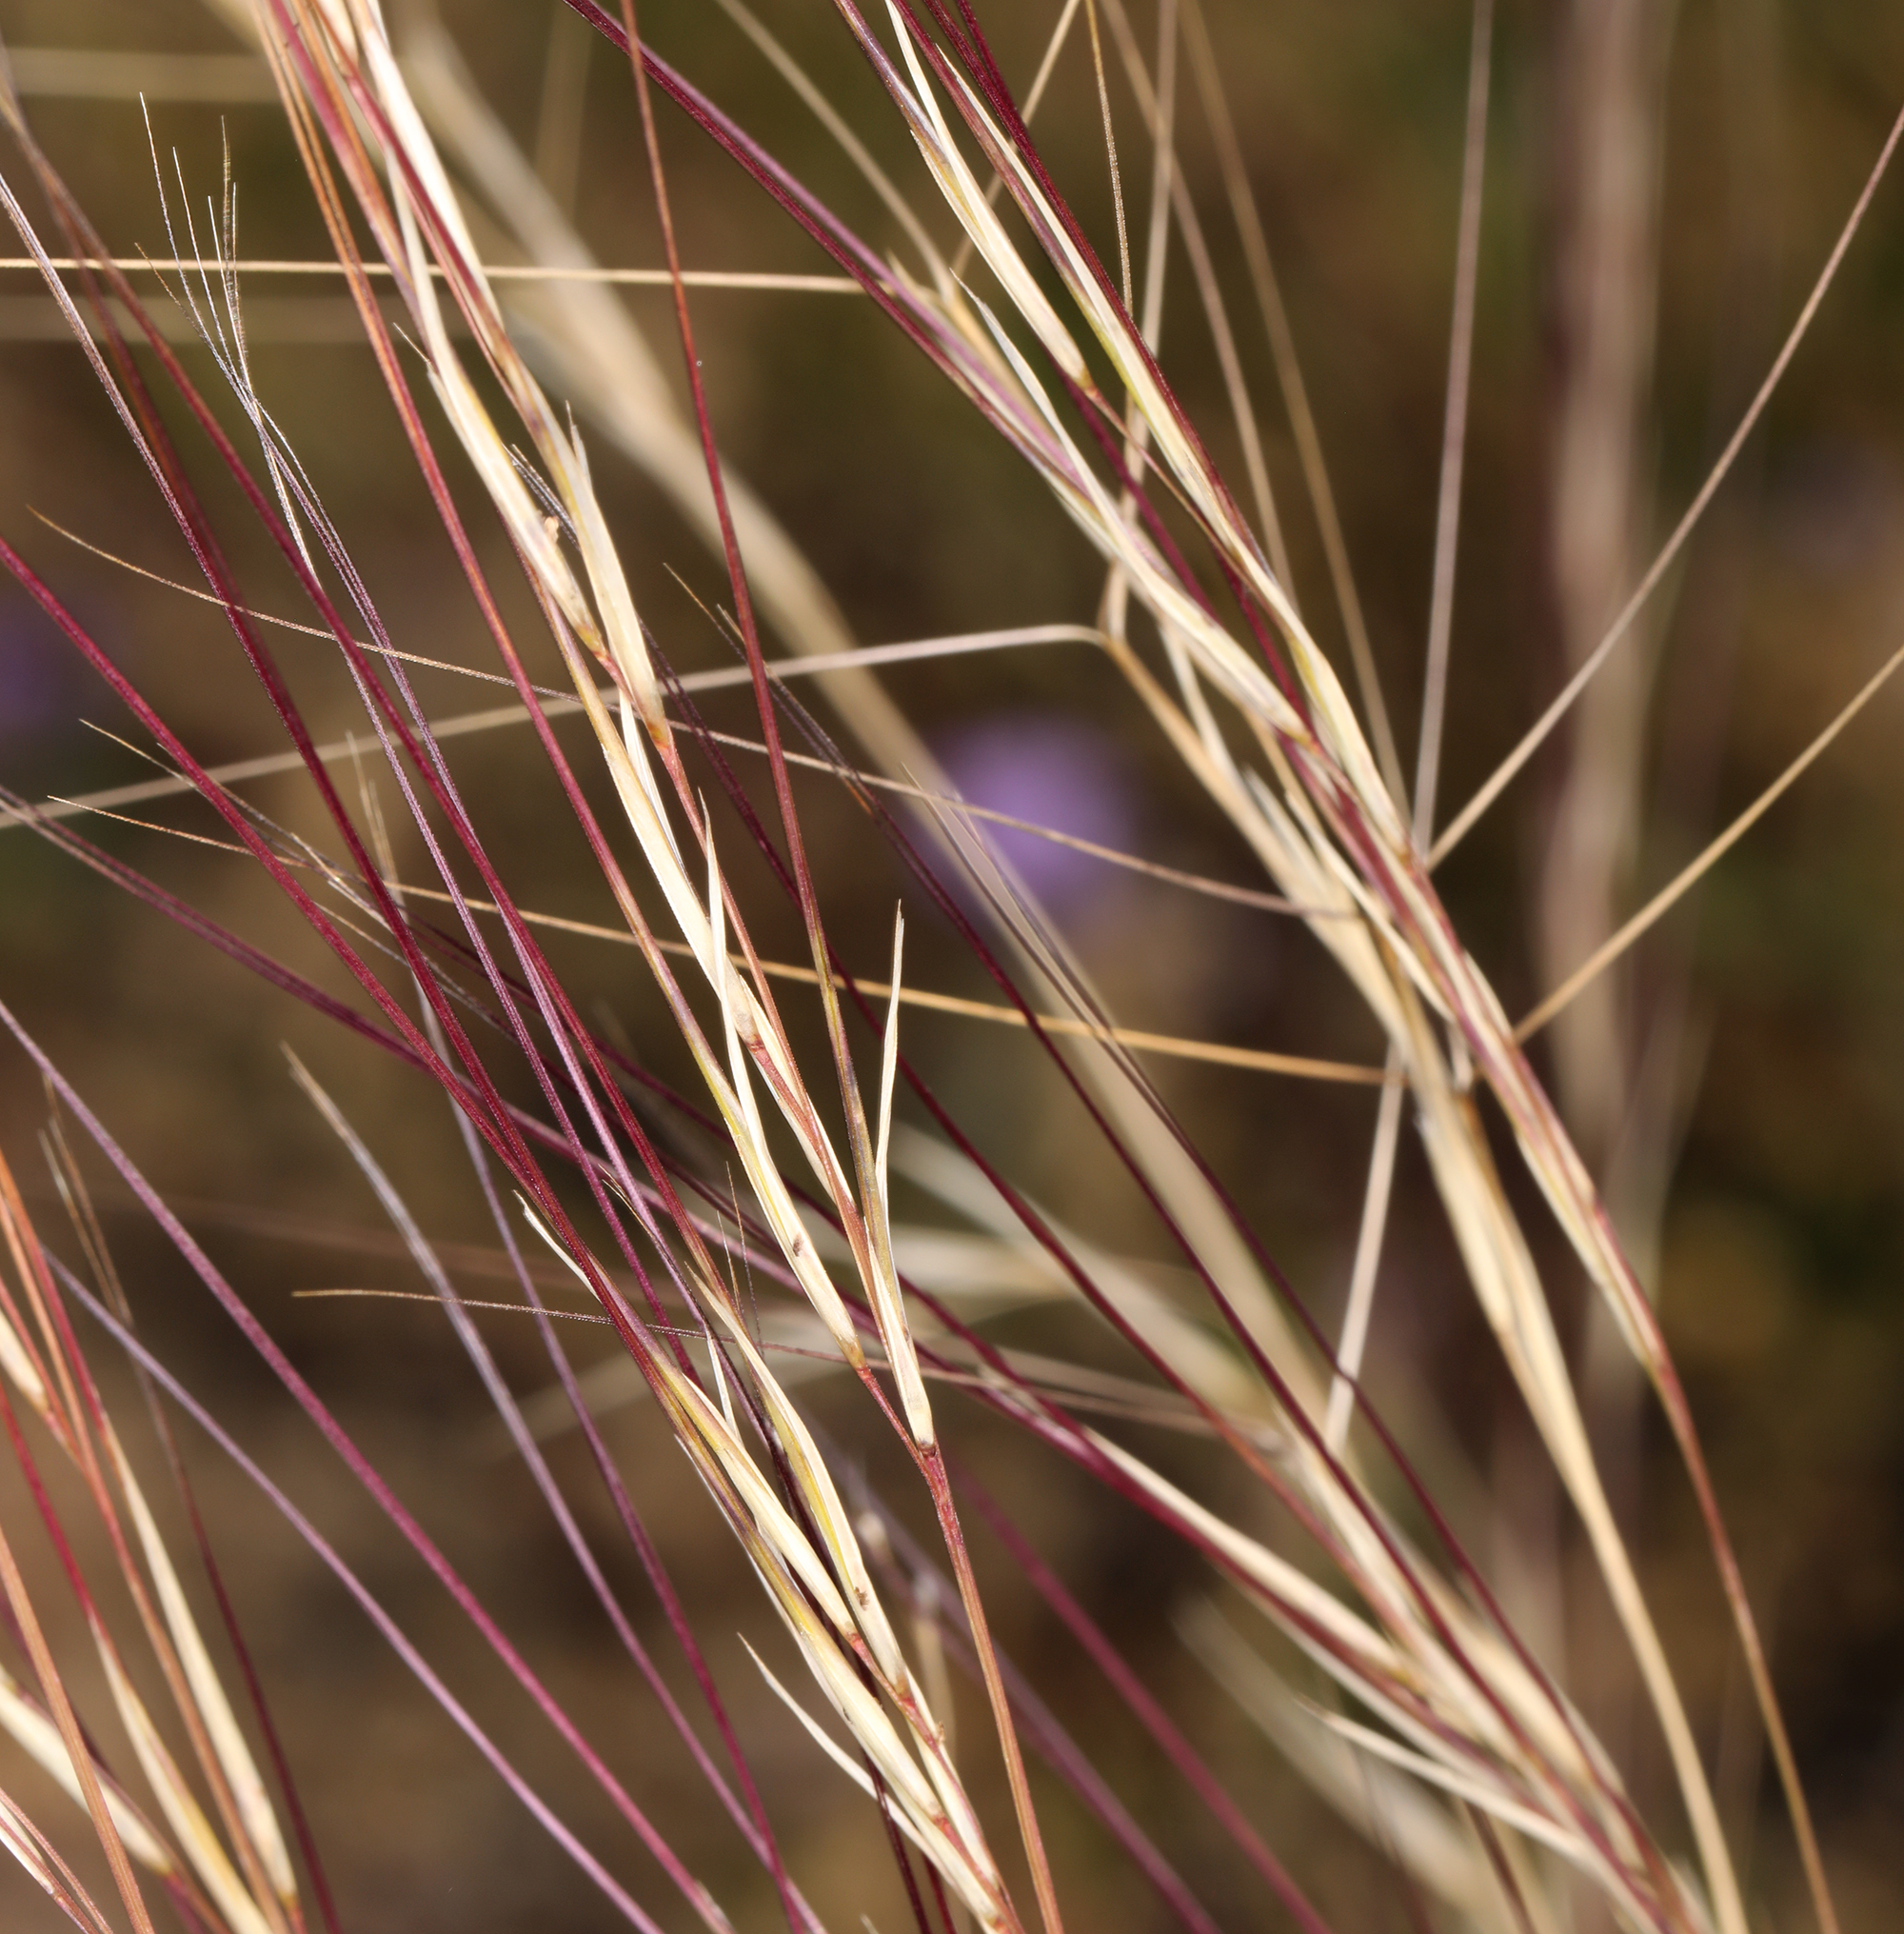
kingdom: Plantae
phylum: Tracheophyta
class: Liliopsida
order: Poales
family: Poaceae
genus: Aristida
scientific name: Aristida purpurea
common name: Purple threeawn
